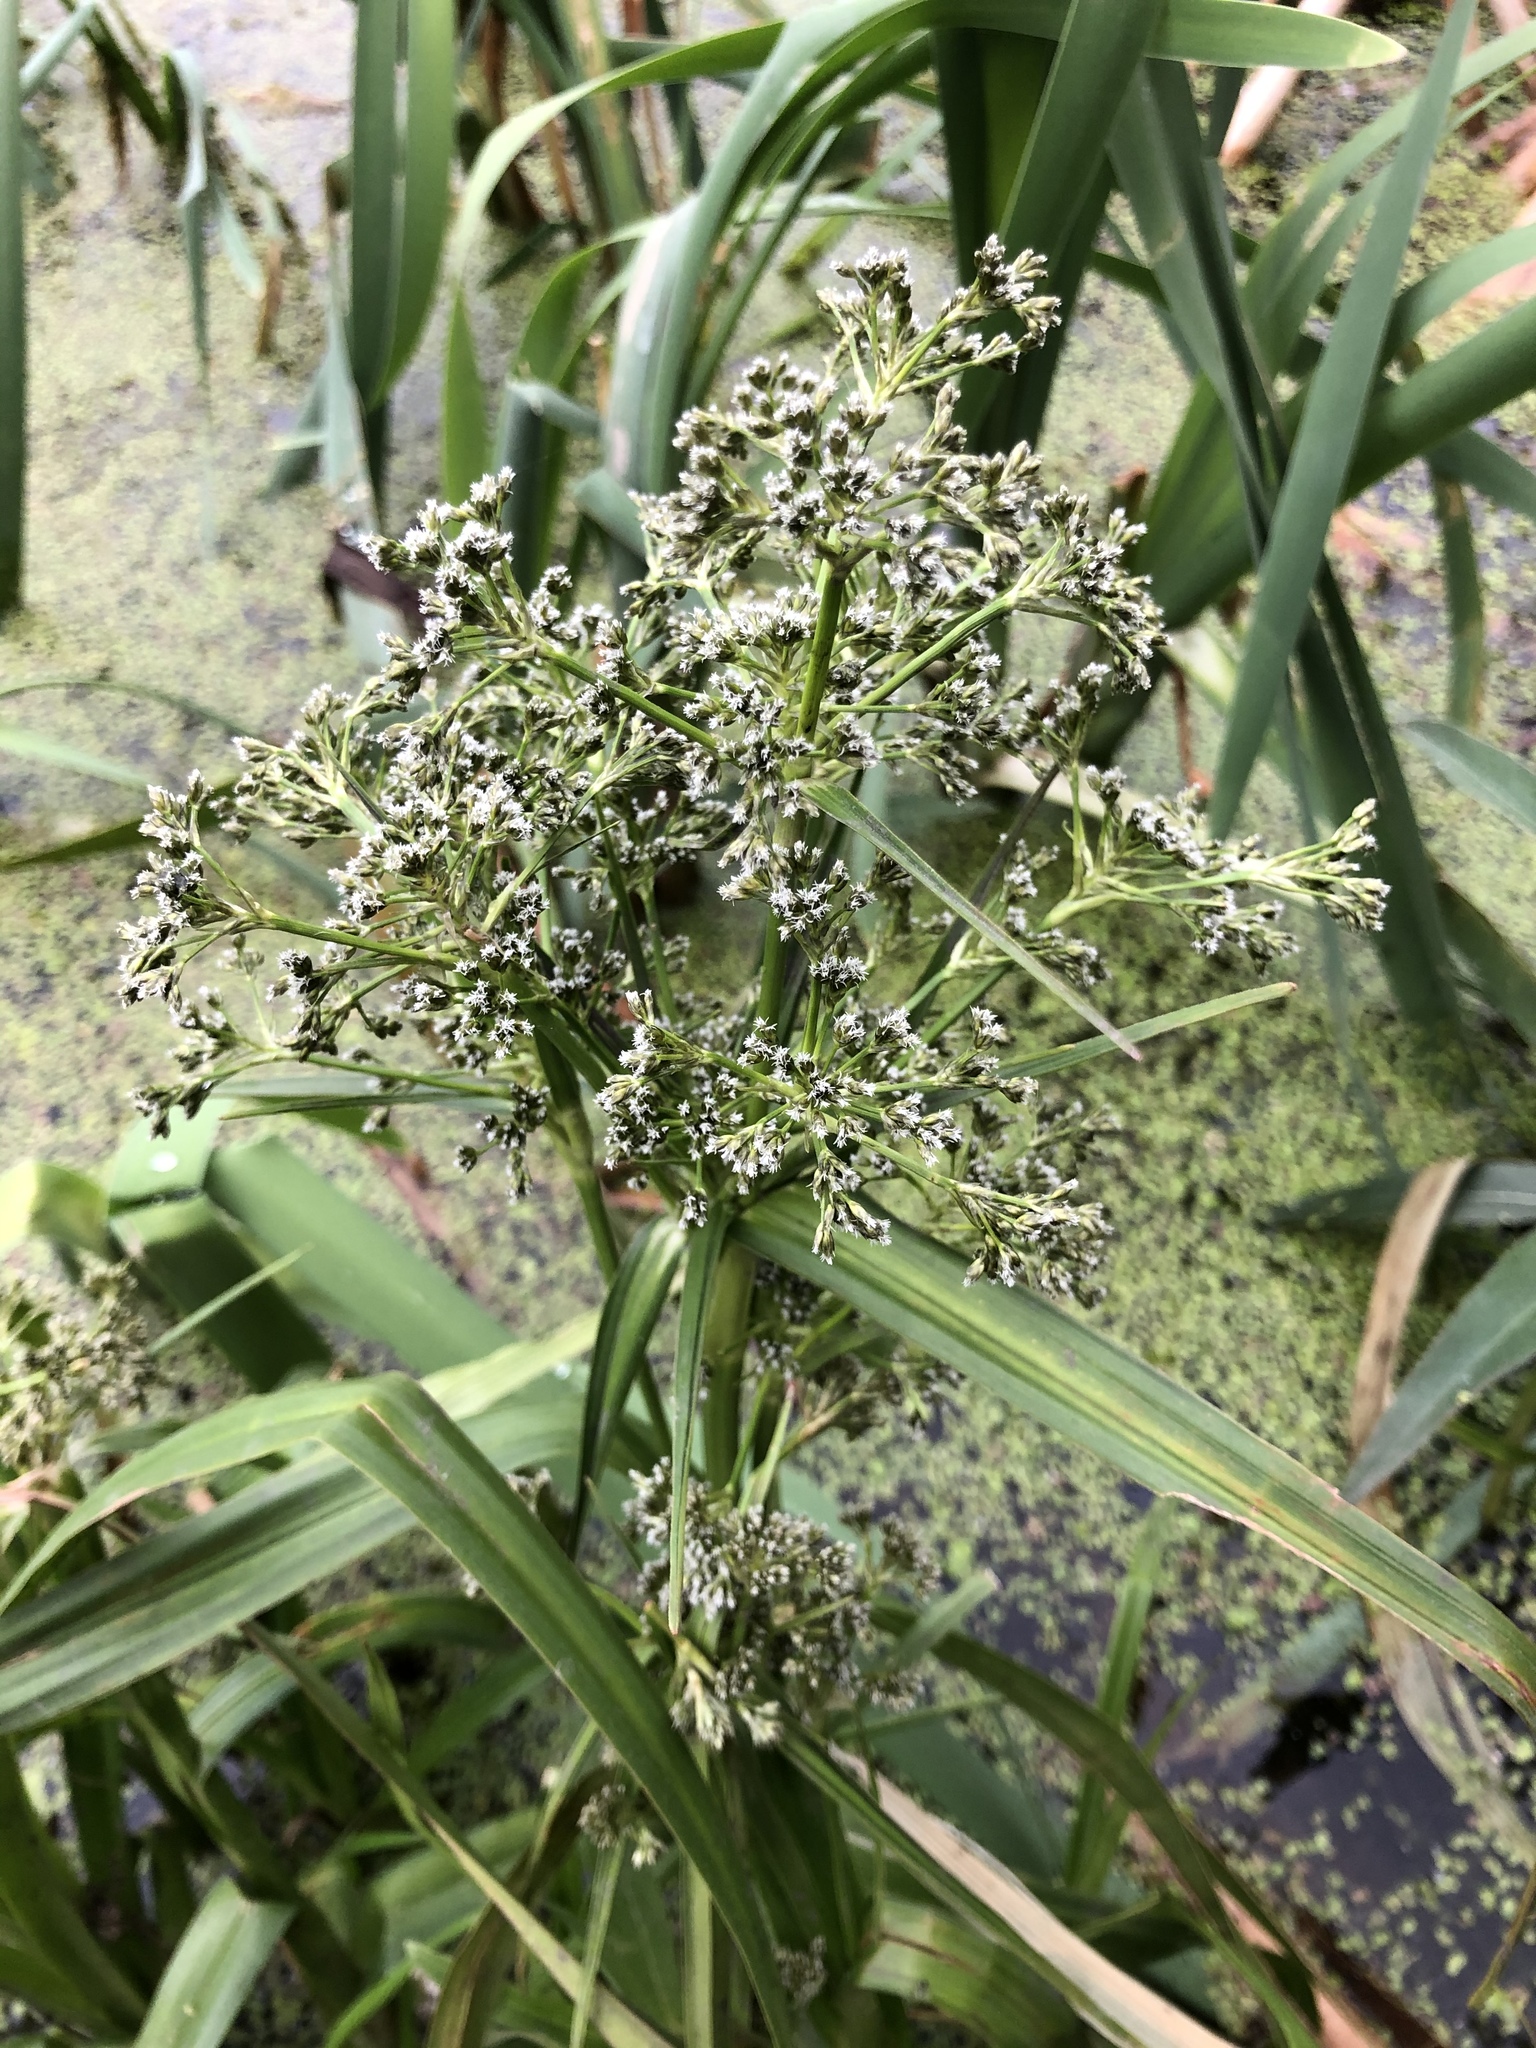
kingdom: Plantae
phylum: Tracheophyta
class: Liliopsida
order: Poales
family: Cyperaceae
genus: Scirpus
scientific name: Scirpus sylvaticus
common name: Wood club-rush
